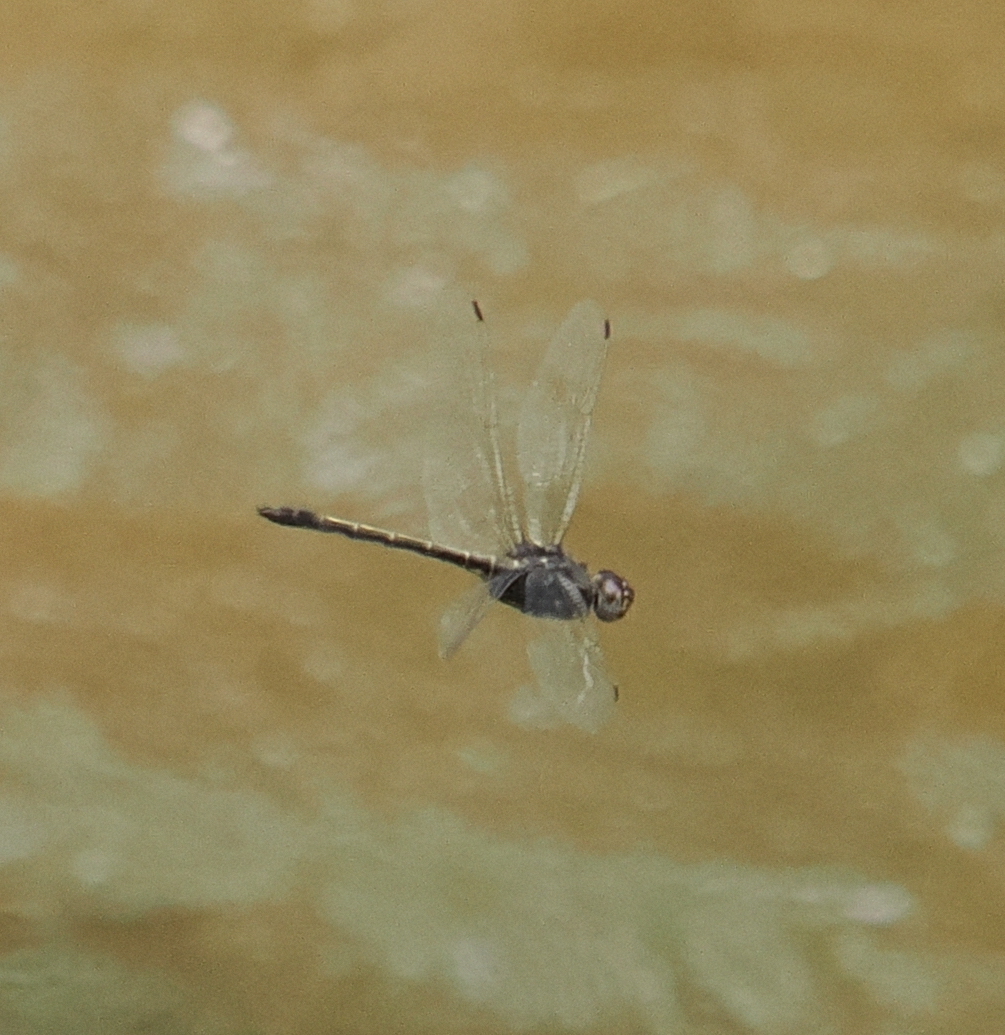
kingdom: Animalia
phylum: Arthropoda
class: Insecta
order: Odonata
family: Libellulidae
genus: Zygonyx
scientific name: Zygonyx iris
